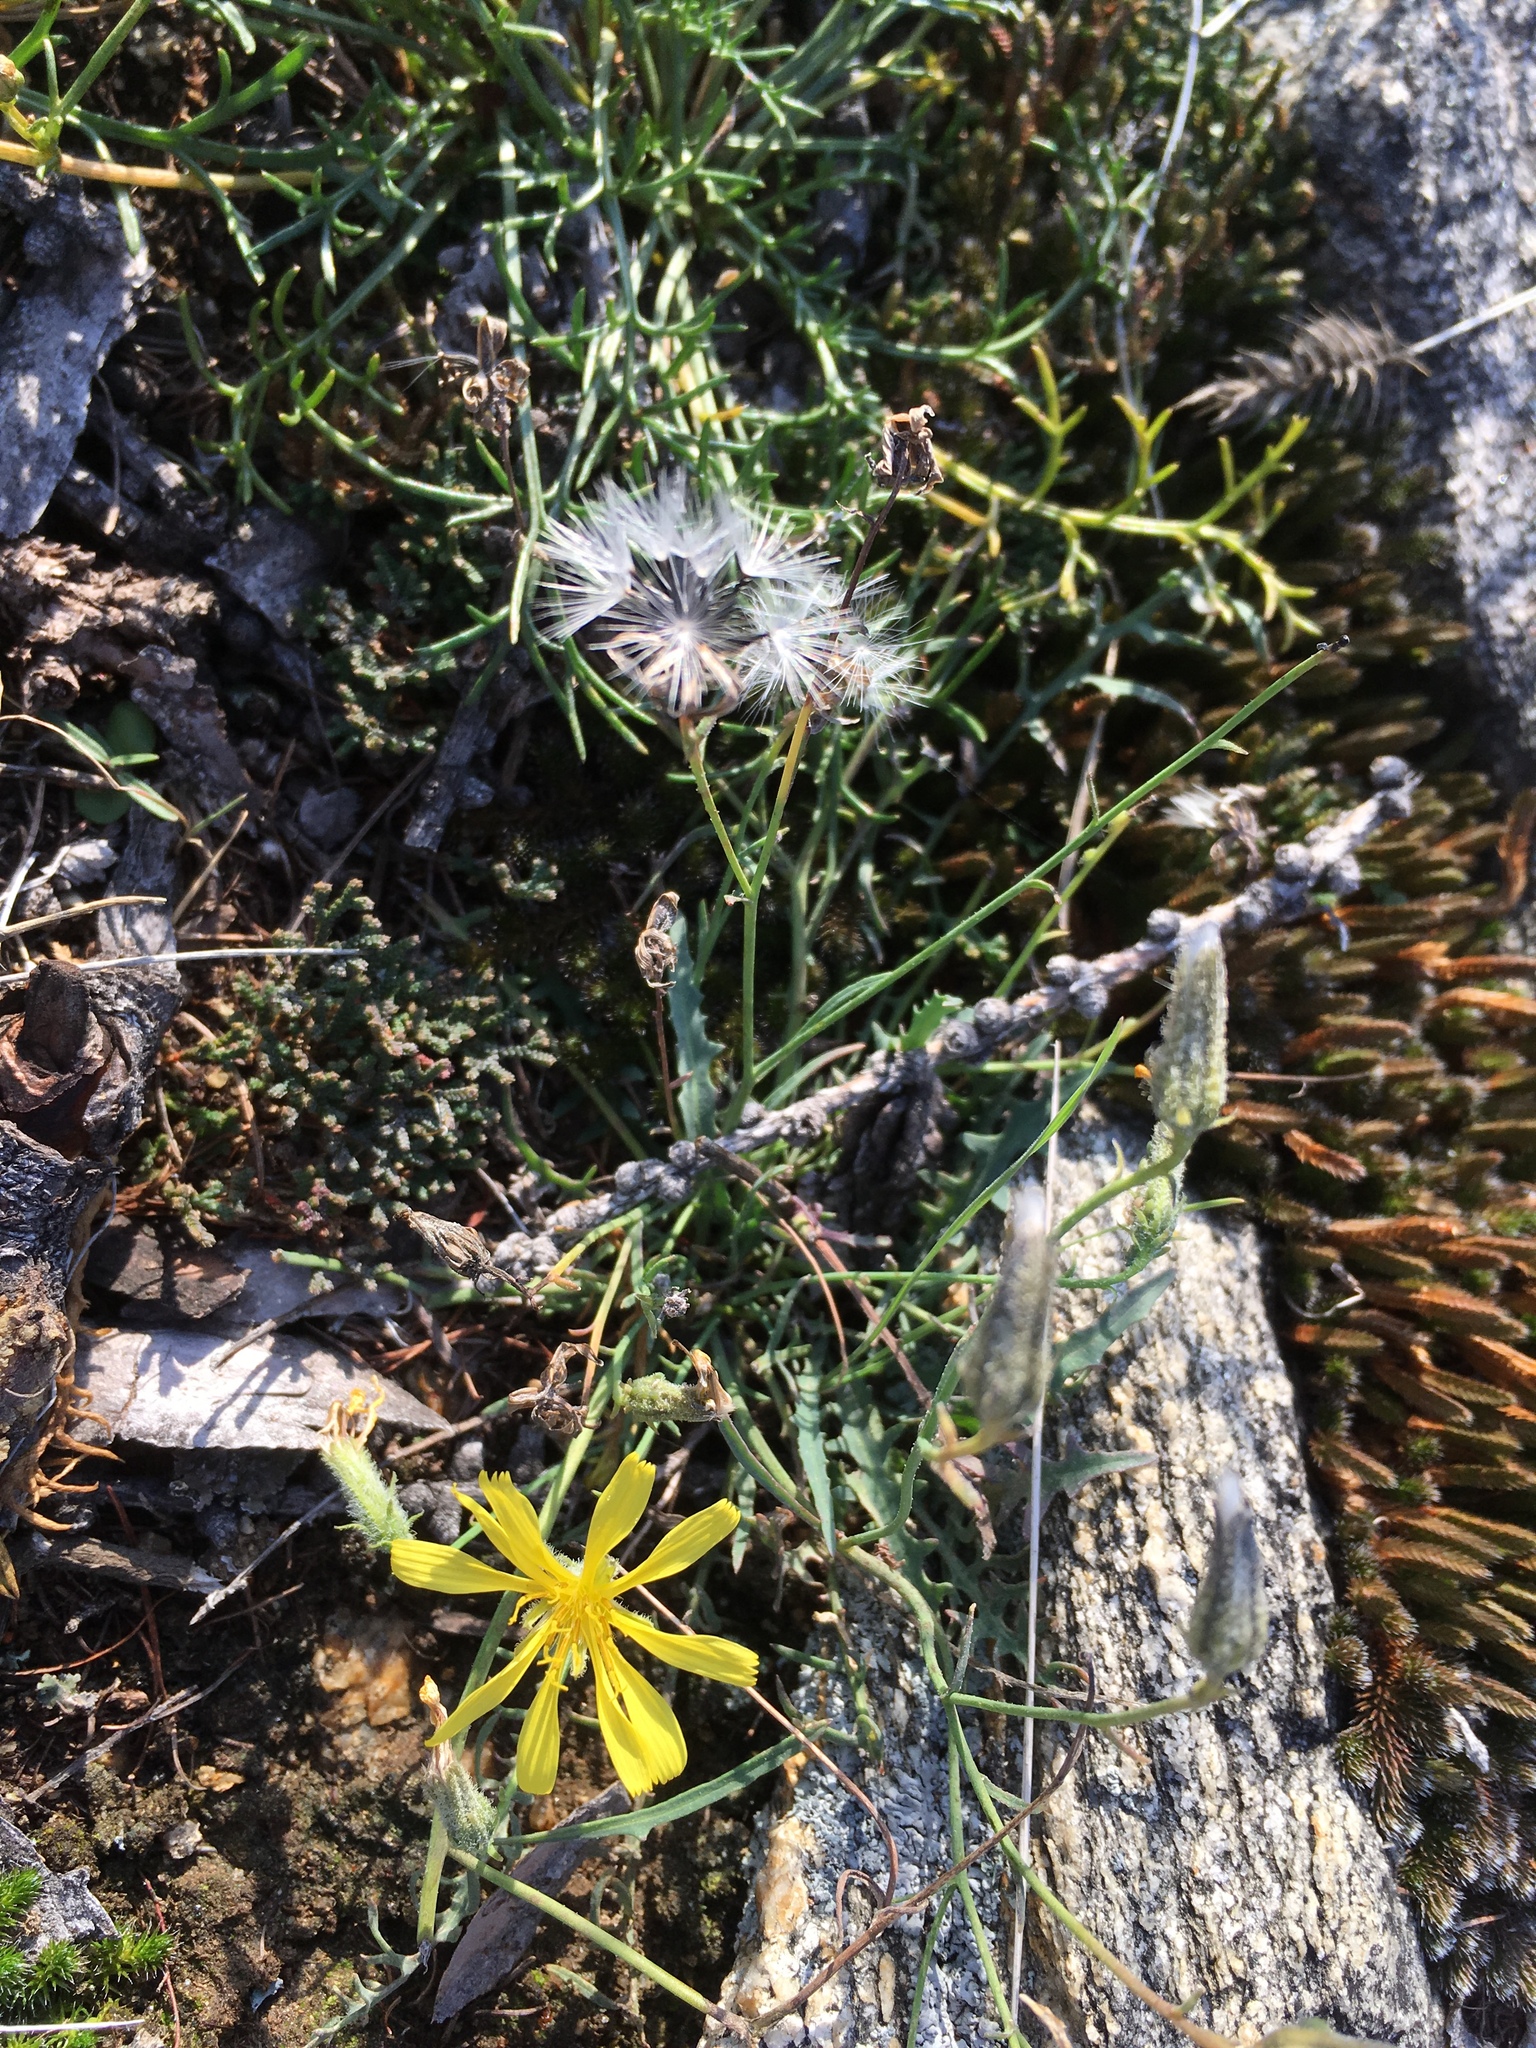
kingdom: Plantae
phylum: Tracheophyta
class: Magnoliopsida
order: Asterales
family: Asteraceae
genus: Crepidiastrum
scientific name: Crepidiastrum tenuifolium
